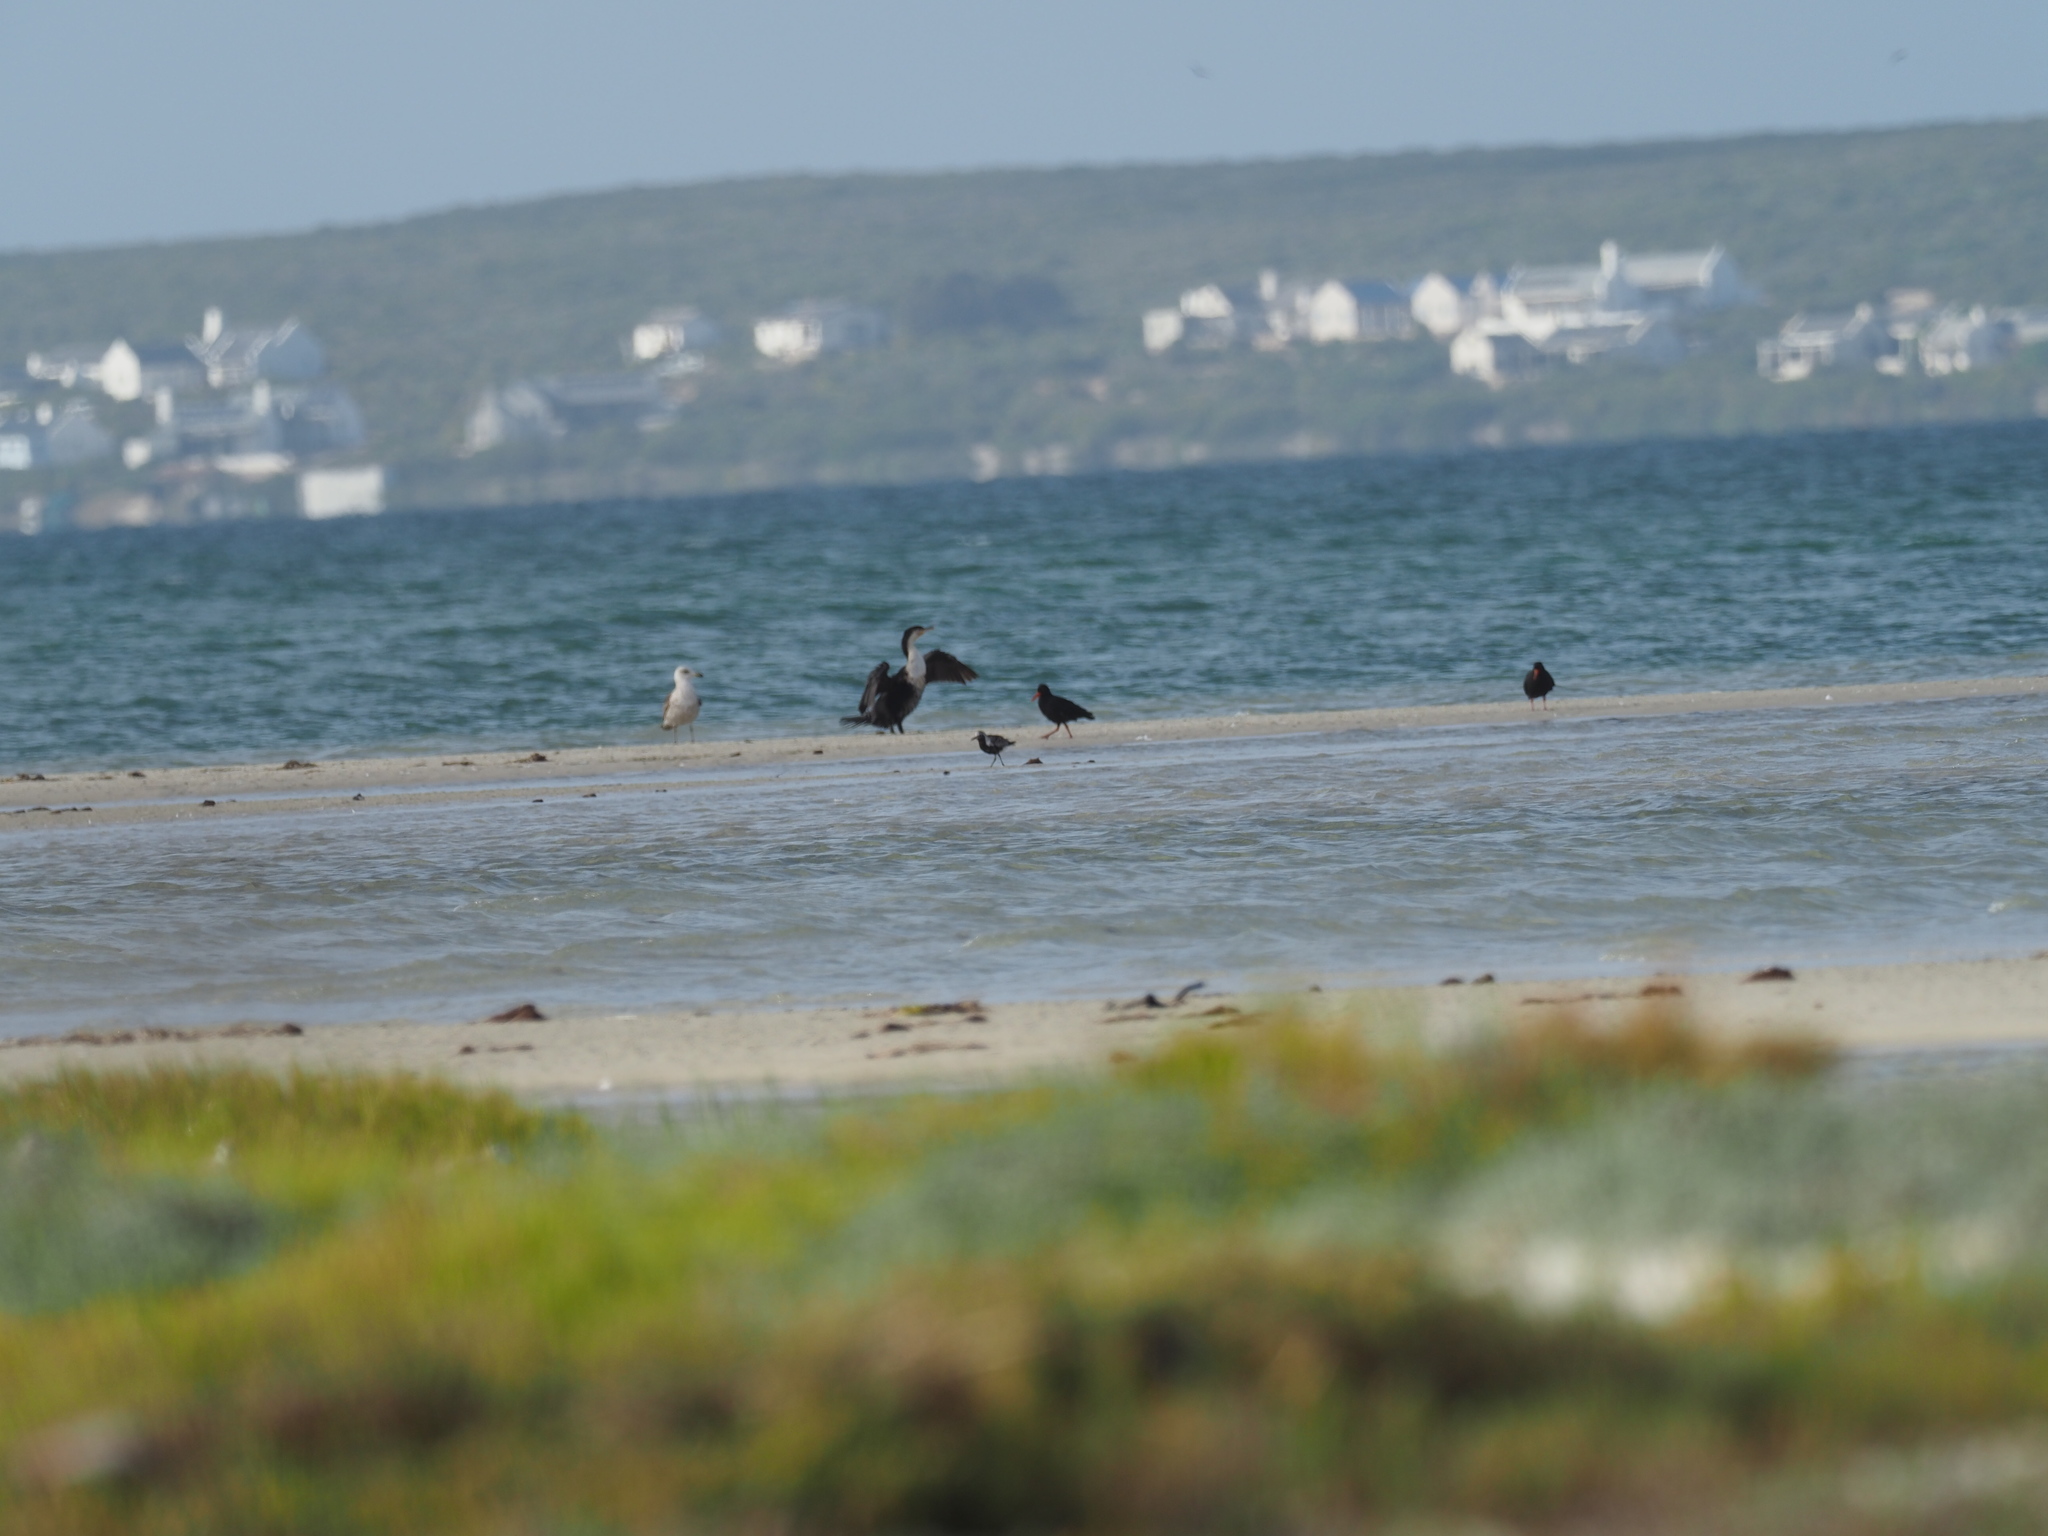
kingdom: Animalia
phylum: Chordata
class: Aves
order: Charadriiformes
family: Haematopodidae
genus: Haematopus
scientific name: Haematopus moquini
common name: African oystercatcher
